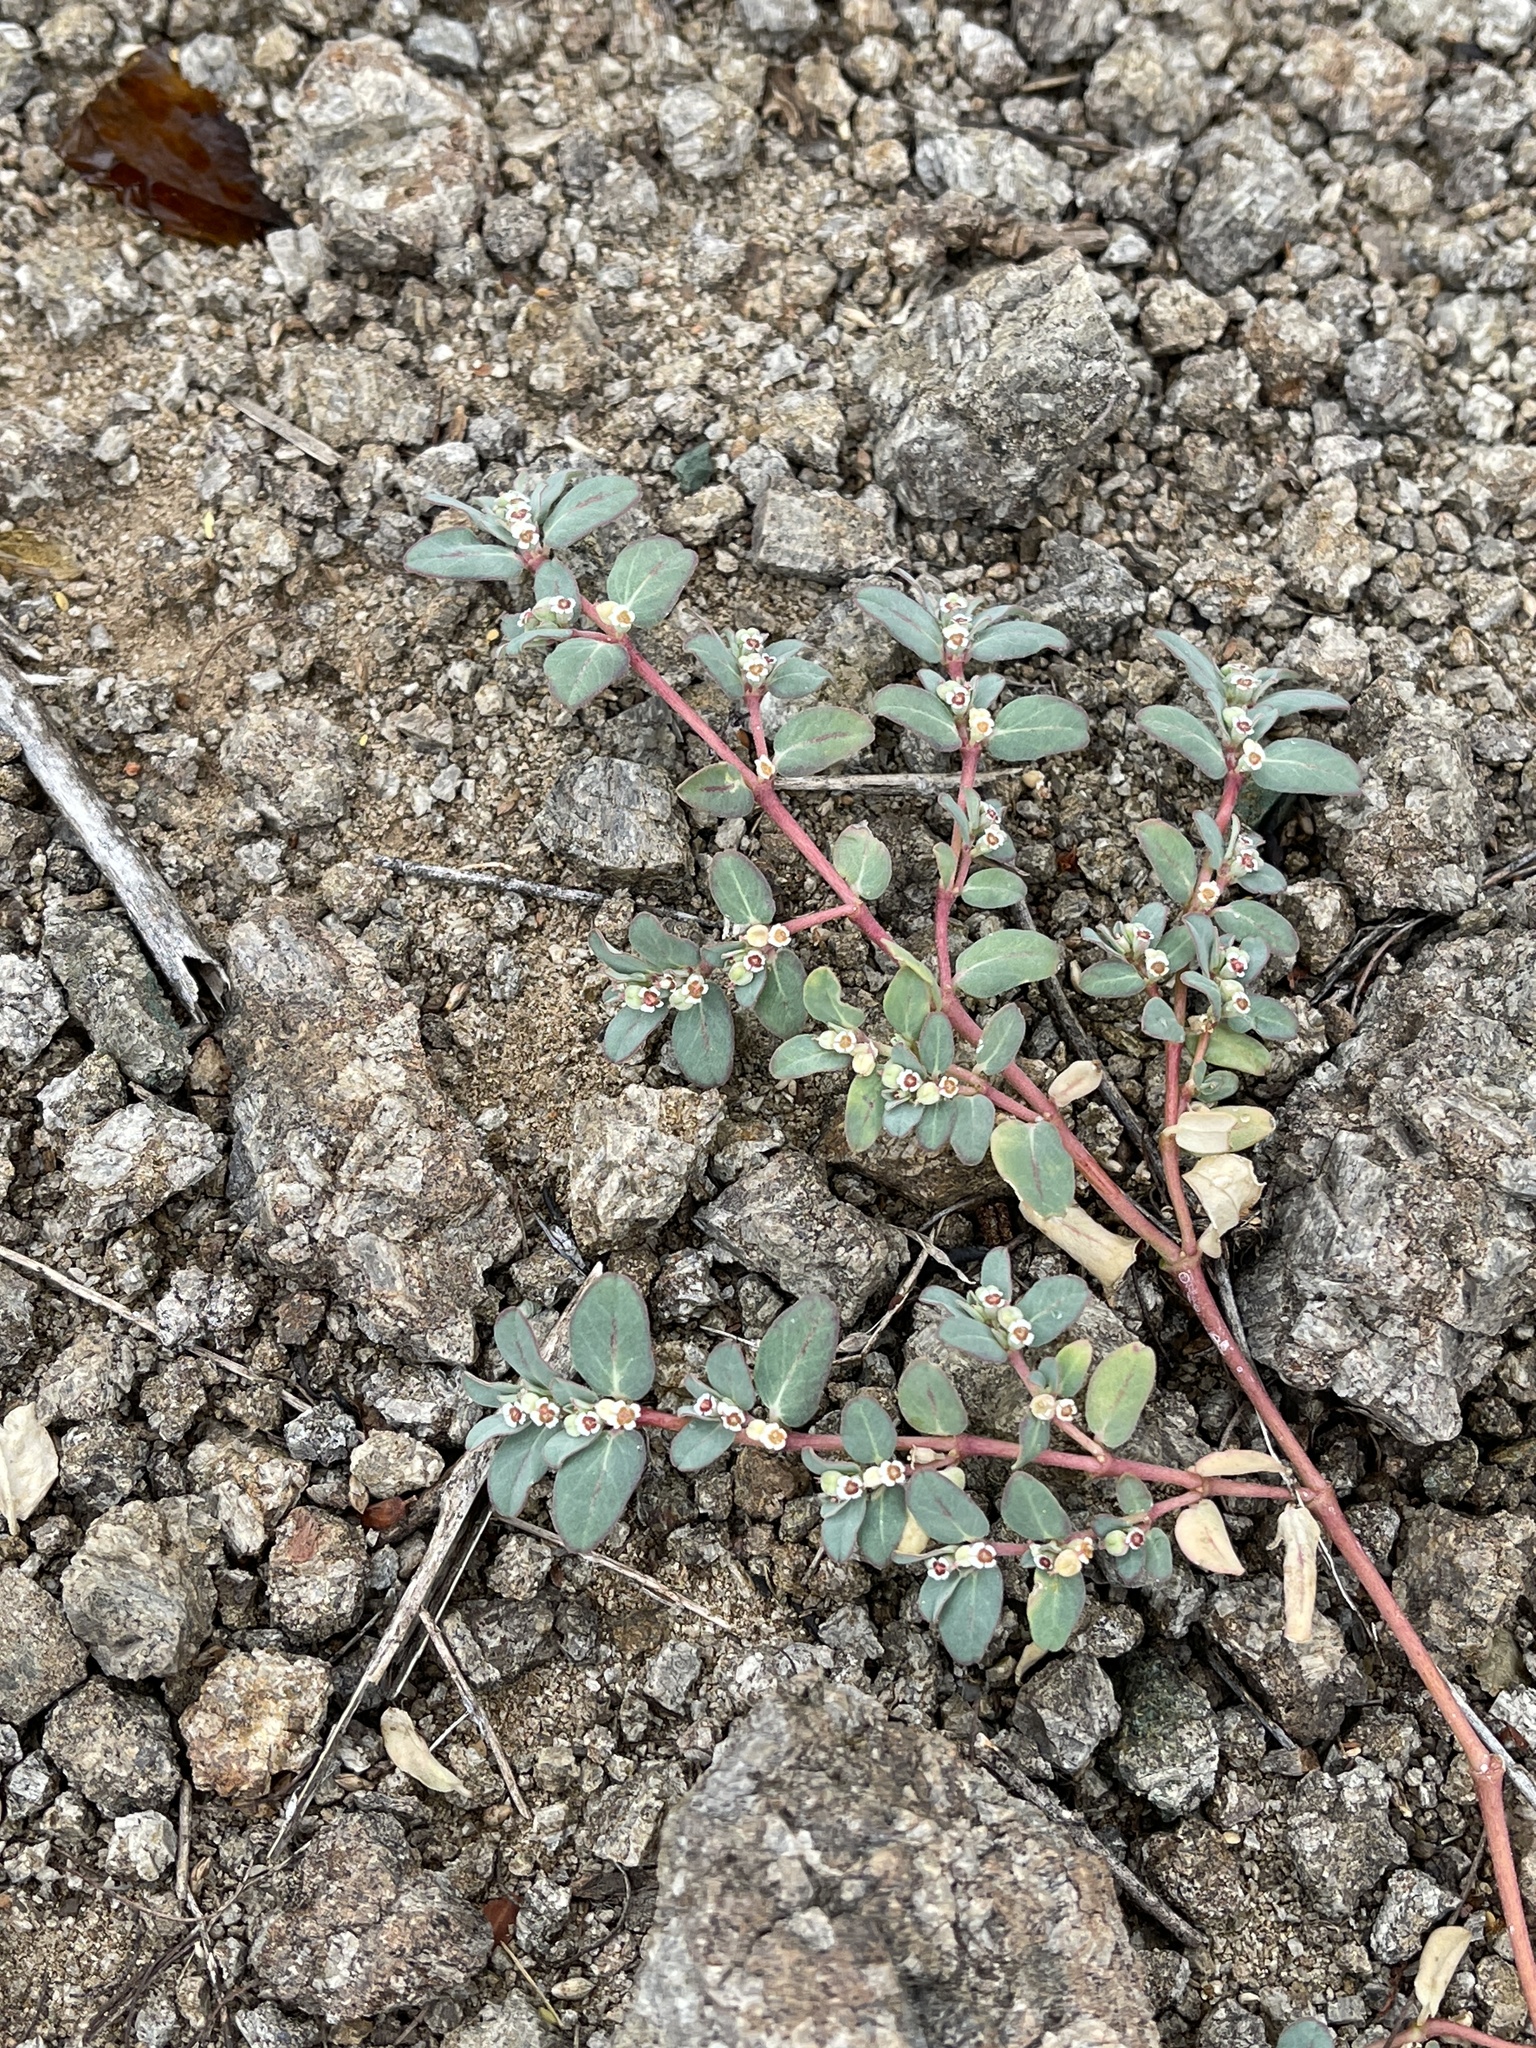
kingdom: Plantae
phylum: Tracheophyta
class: Magnoliopsida
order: Malpighiales
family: Euphorbiaceae
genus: Euphorbia
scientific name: Euphorbia pediculifera
